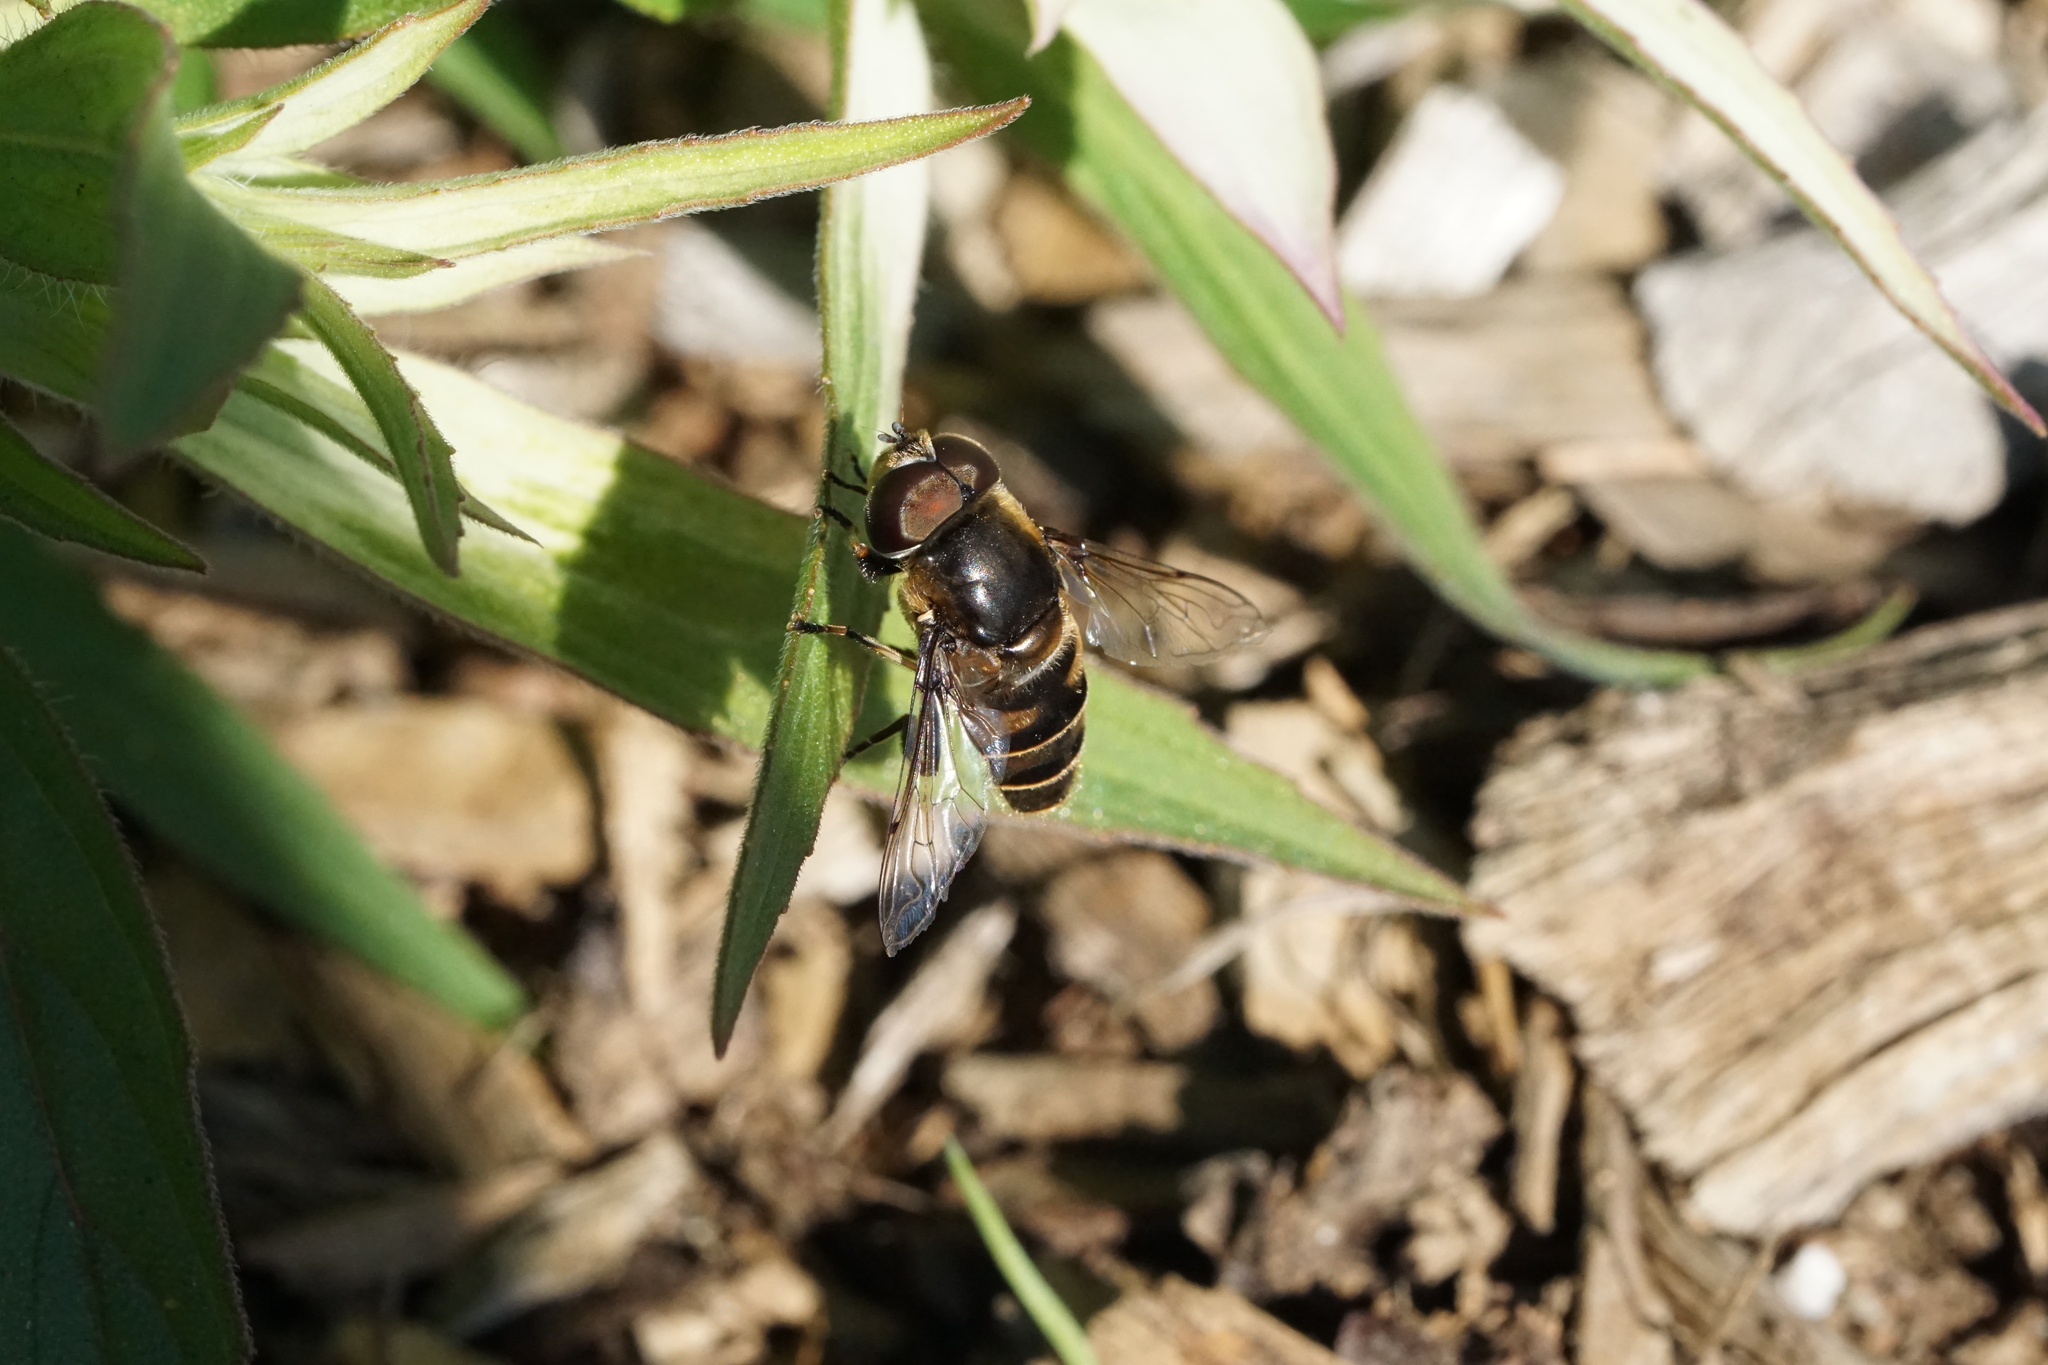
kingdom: Animalia
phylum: Arthropoda
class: Insecta
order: Diptera
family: Syrphidae
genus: Eristalis
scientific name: Eristalis dimidiata
